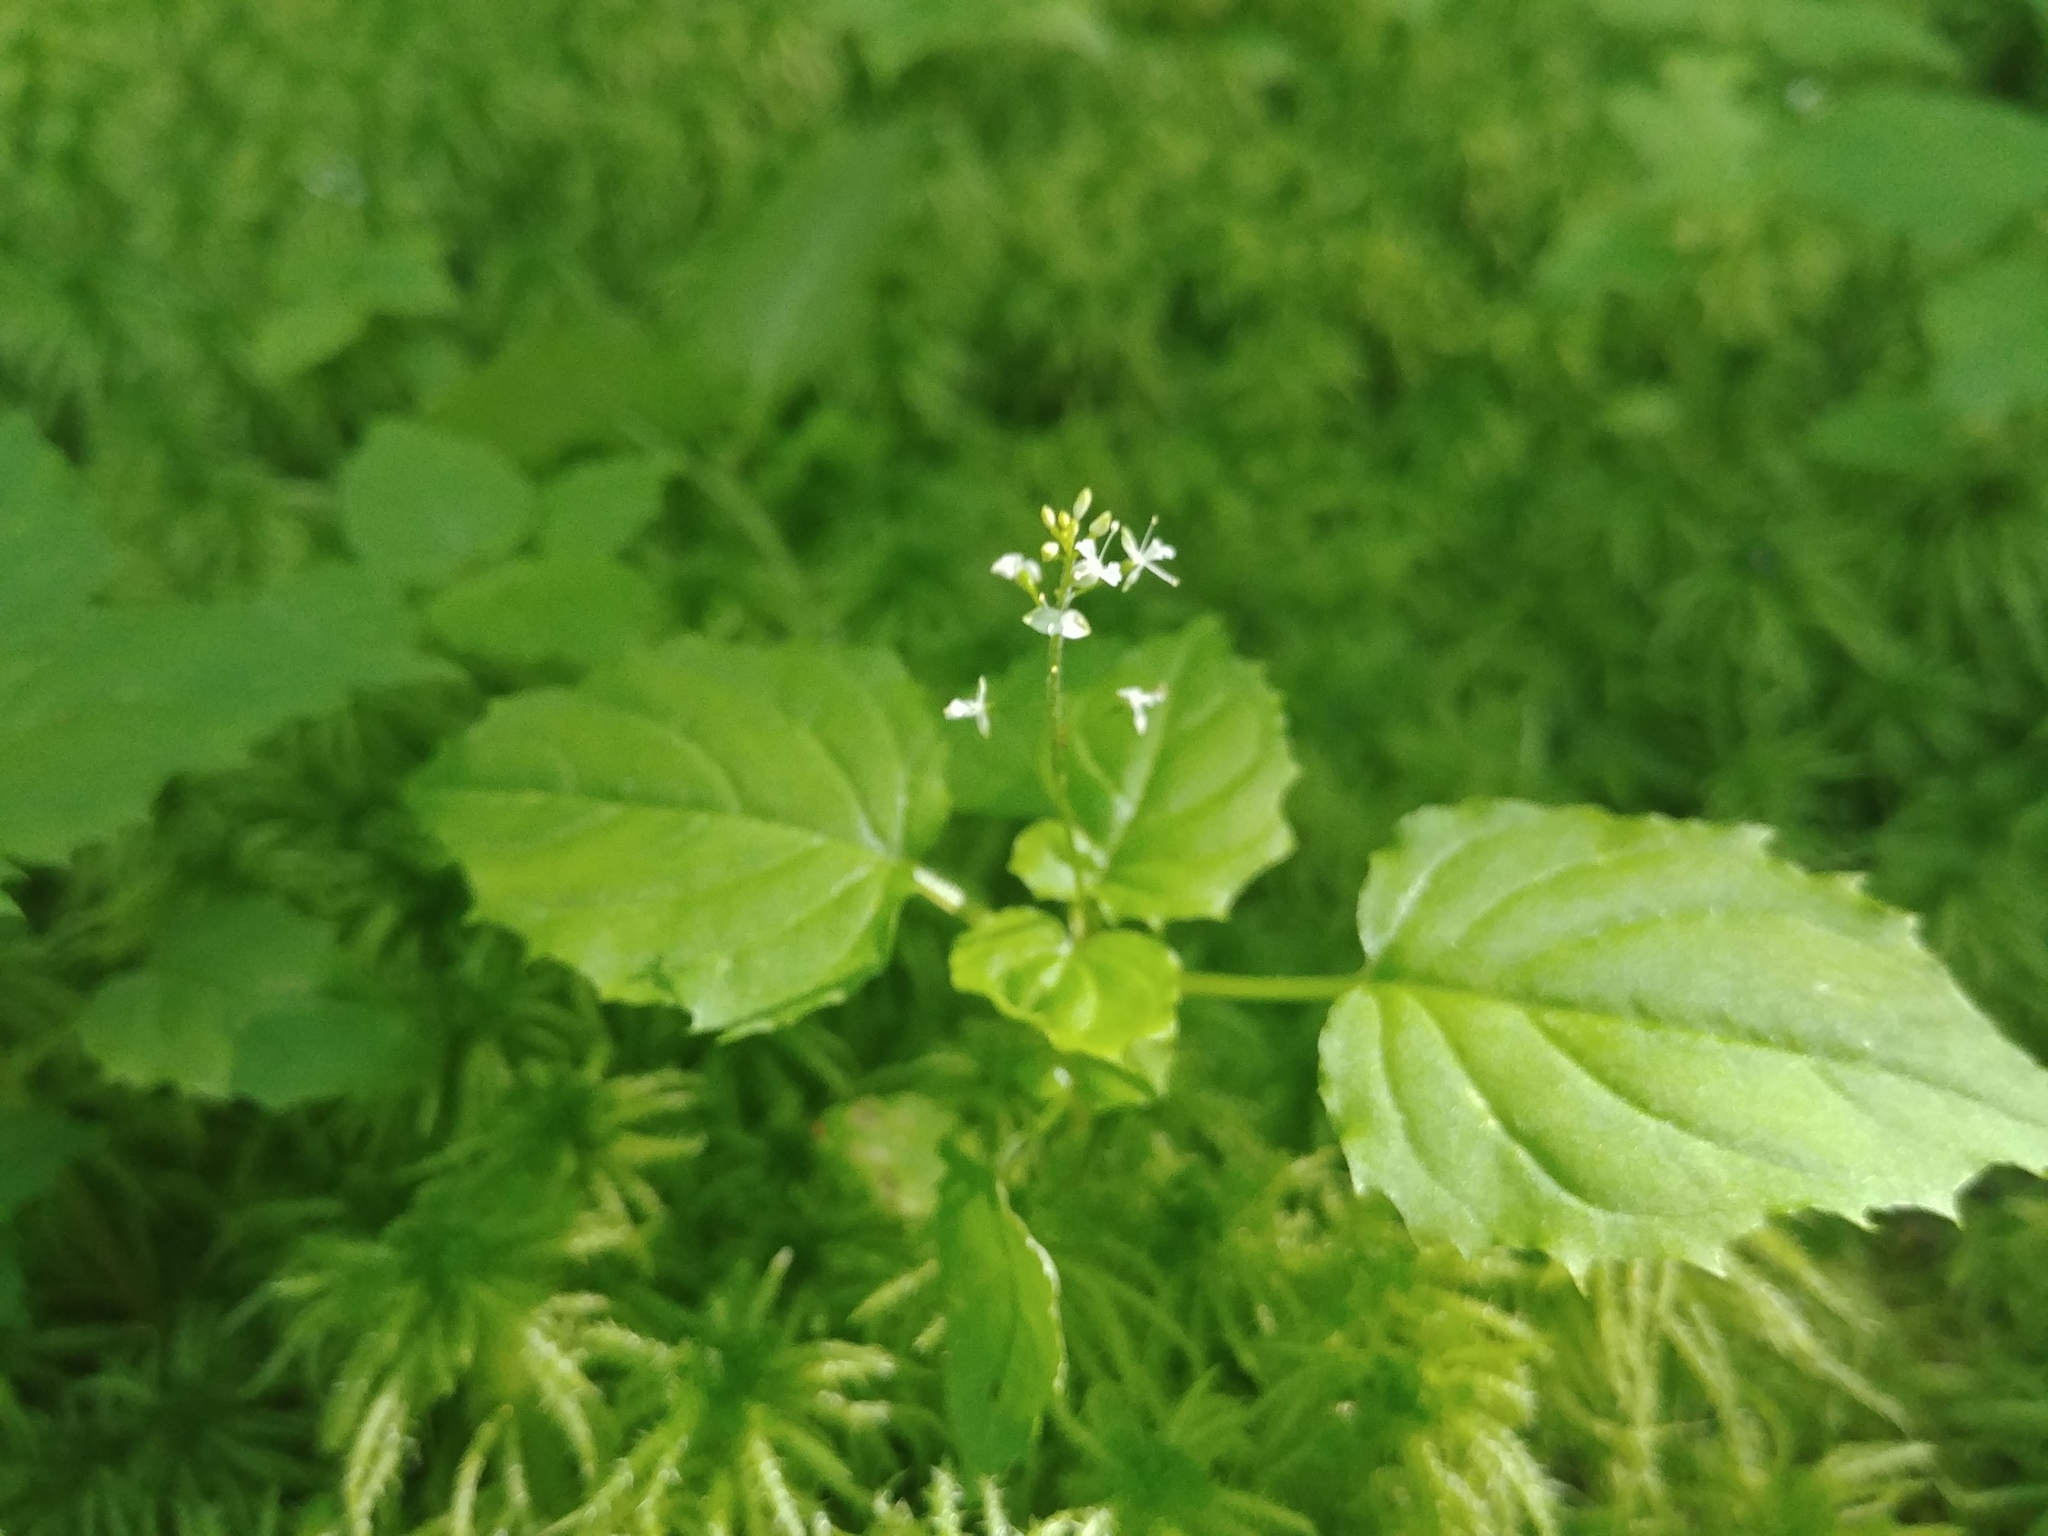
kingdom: Plantae
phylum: Tracheophyta
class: Magnoliopsida
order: Myrtales
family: Onagraceae
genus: Circaea
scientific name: Circaea alpina
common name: Alpine enchanter's-nightshade
